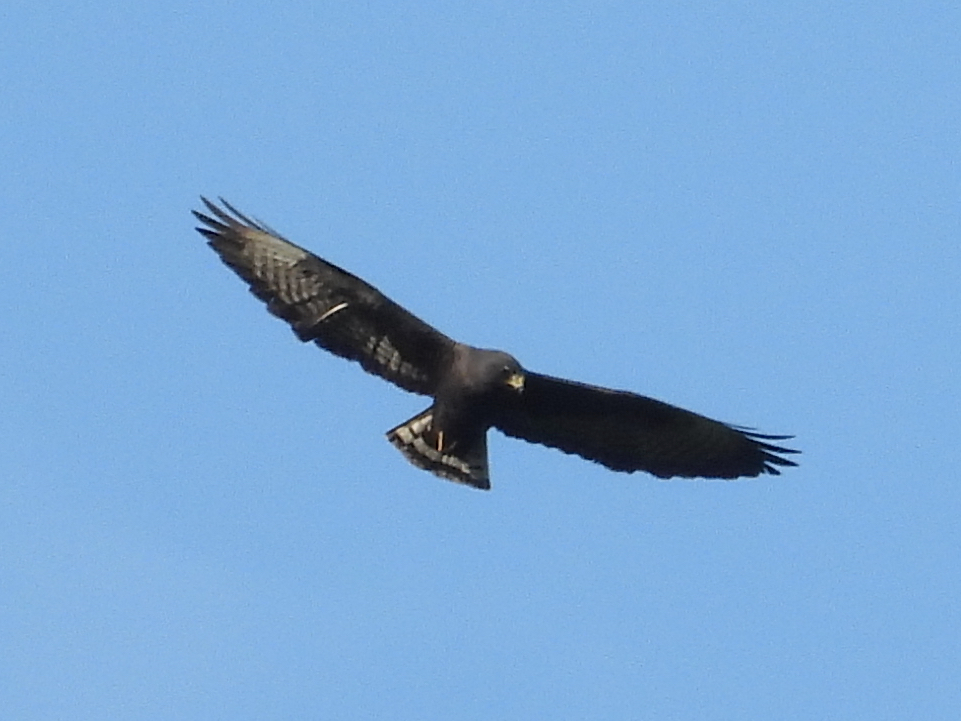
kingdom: Animalia
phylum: Chordata
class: Aves
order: Accipitriformes
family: Accipitridae
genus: Buteo
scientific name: Buteo brachyurus
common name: Short-tailed hawk
